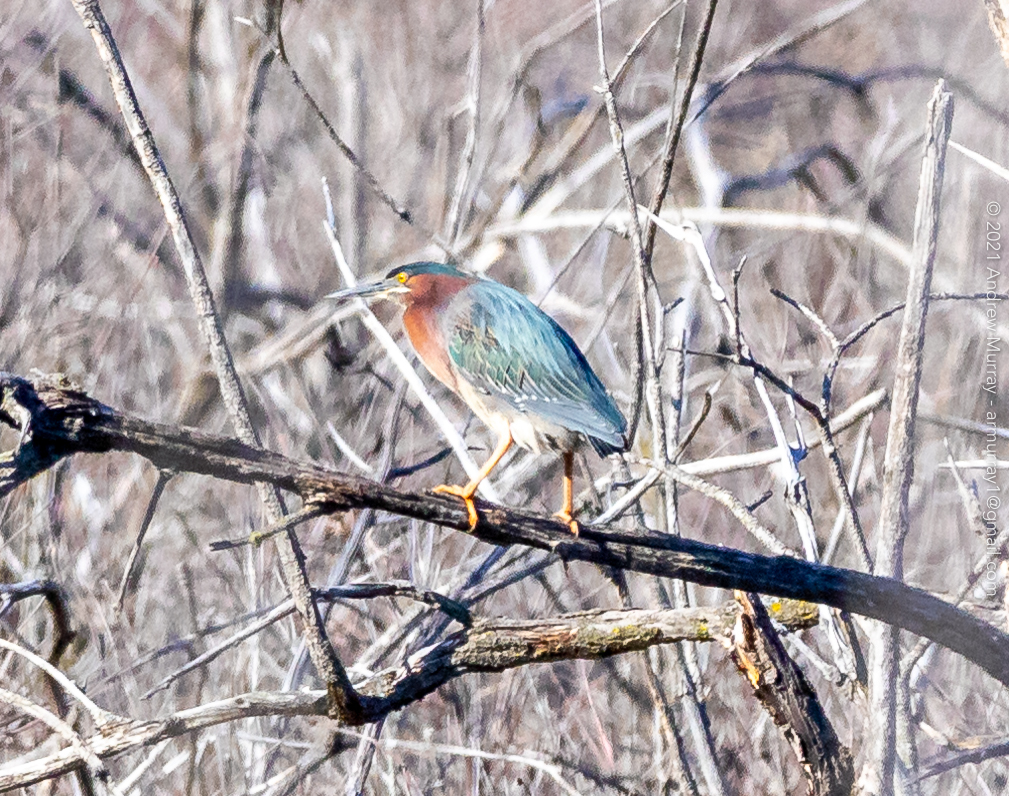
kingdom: Animalia
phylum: Chordata
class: Aves
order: Pelecaniformes
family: Ardeidae
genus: Butorides
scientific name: Butorides virescens
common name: Green heron
